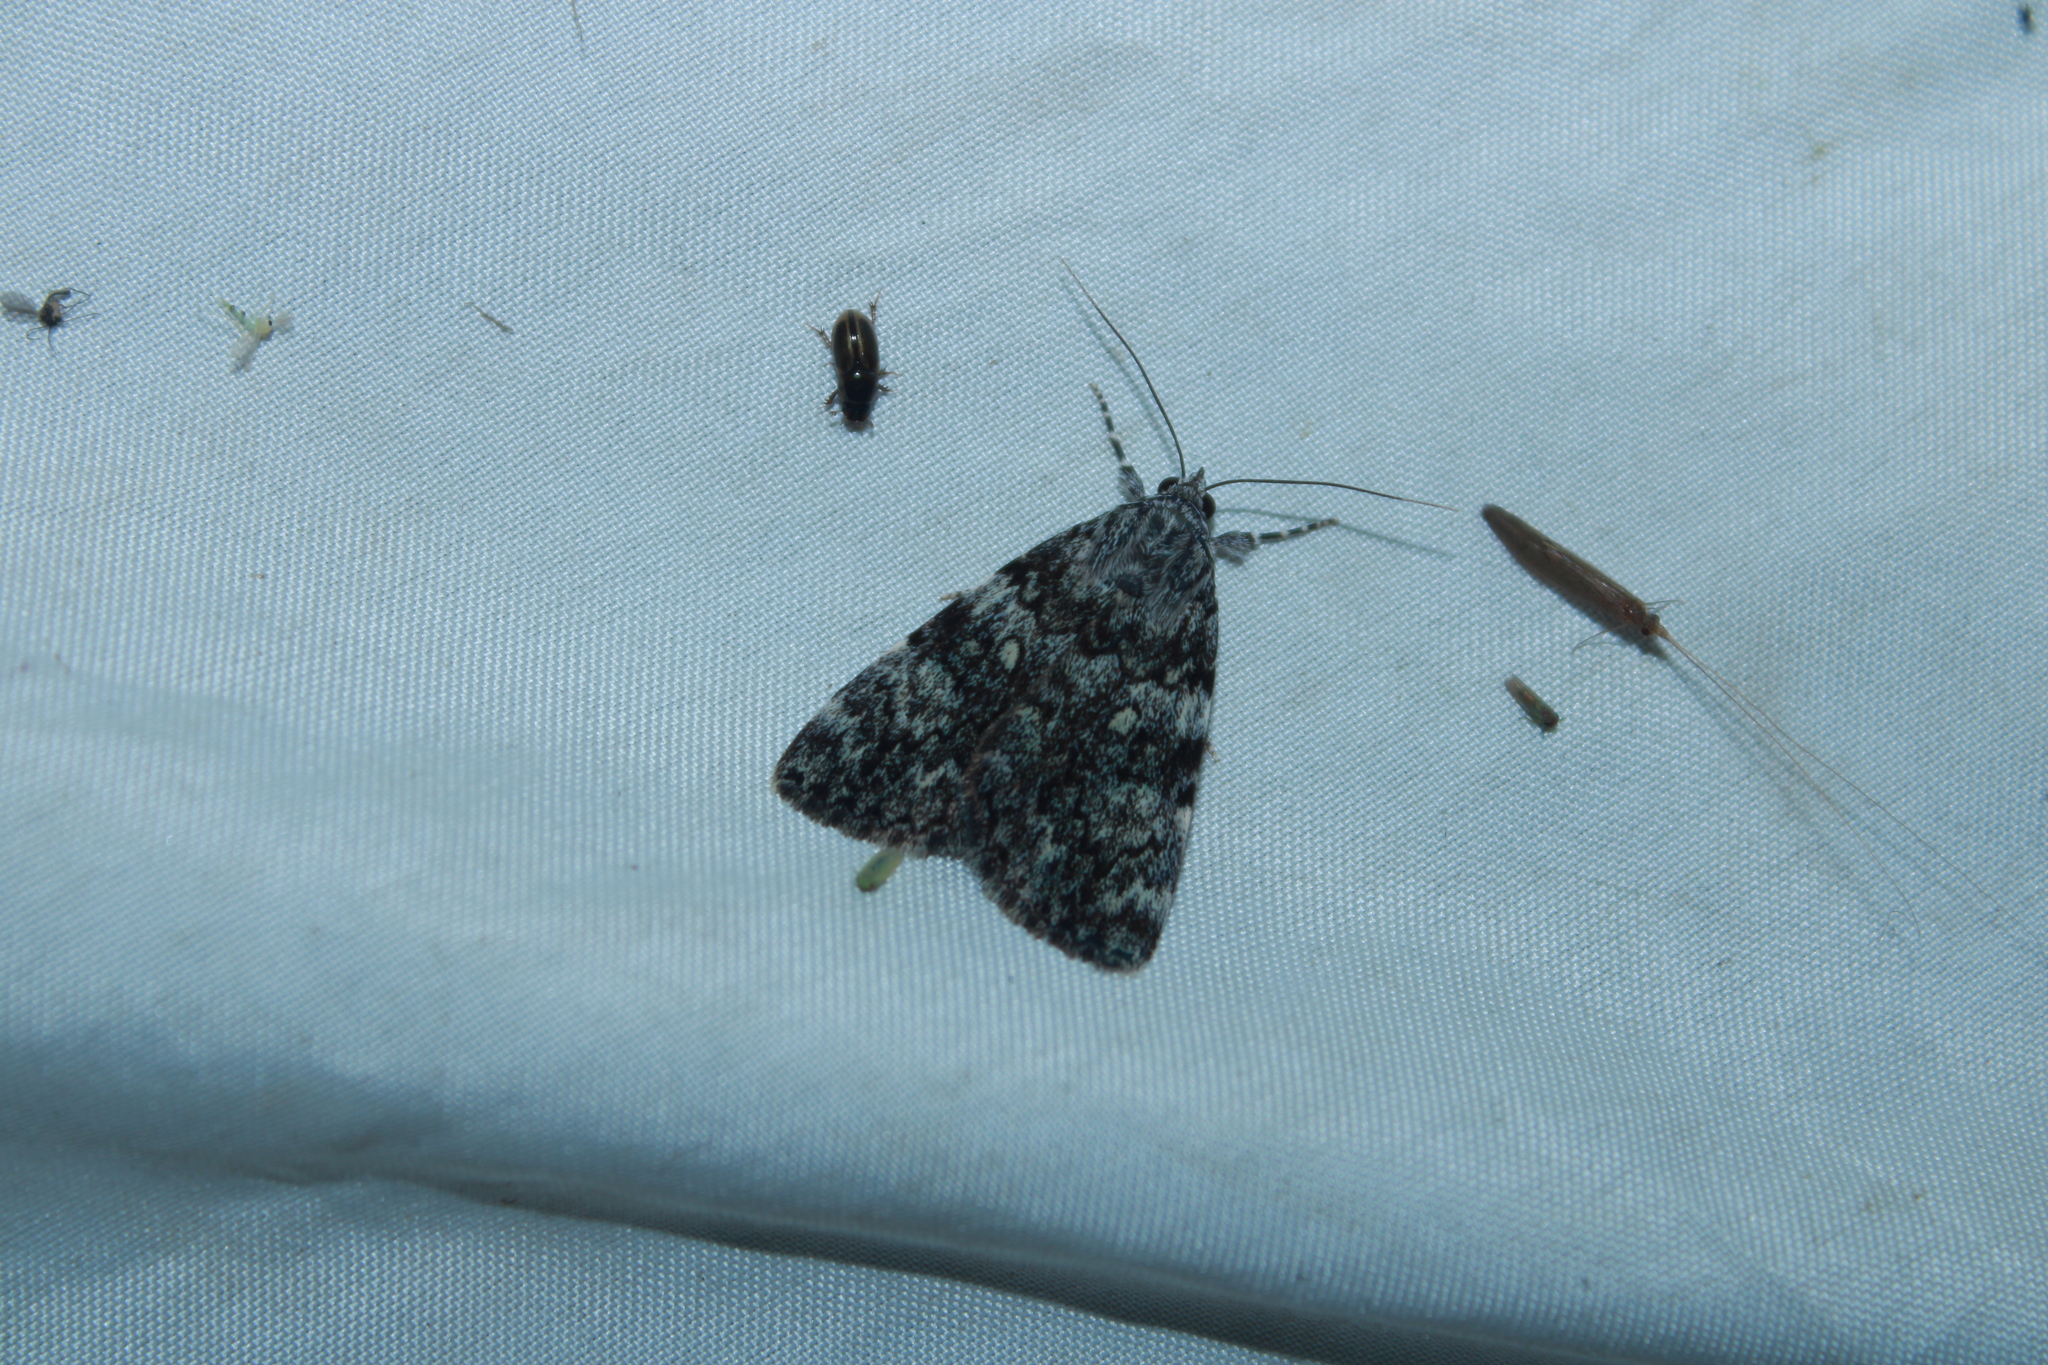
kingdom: Animalia
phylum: Arthropoda
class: Insecta
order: Lepidoptera
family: Erebidae
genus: Catocala
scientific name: Catocala lineella
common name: Little lined underwing
